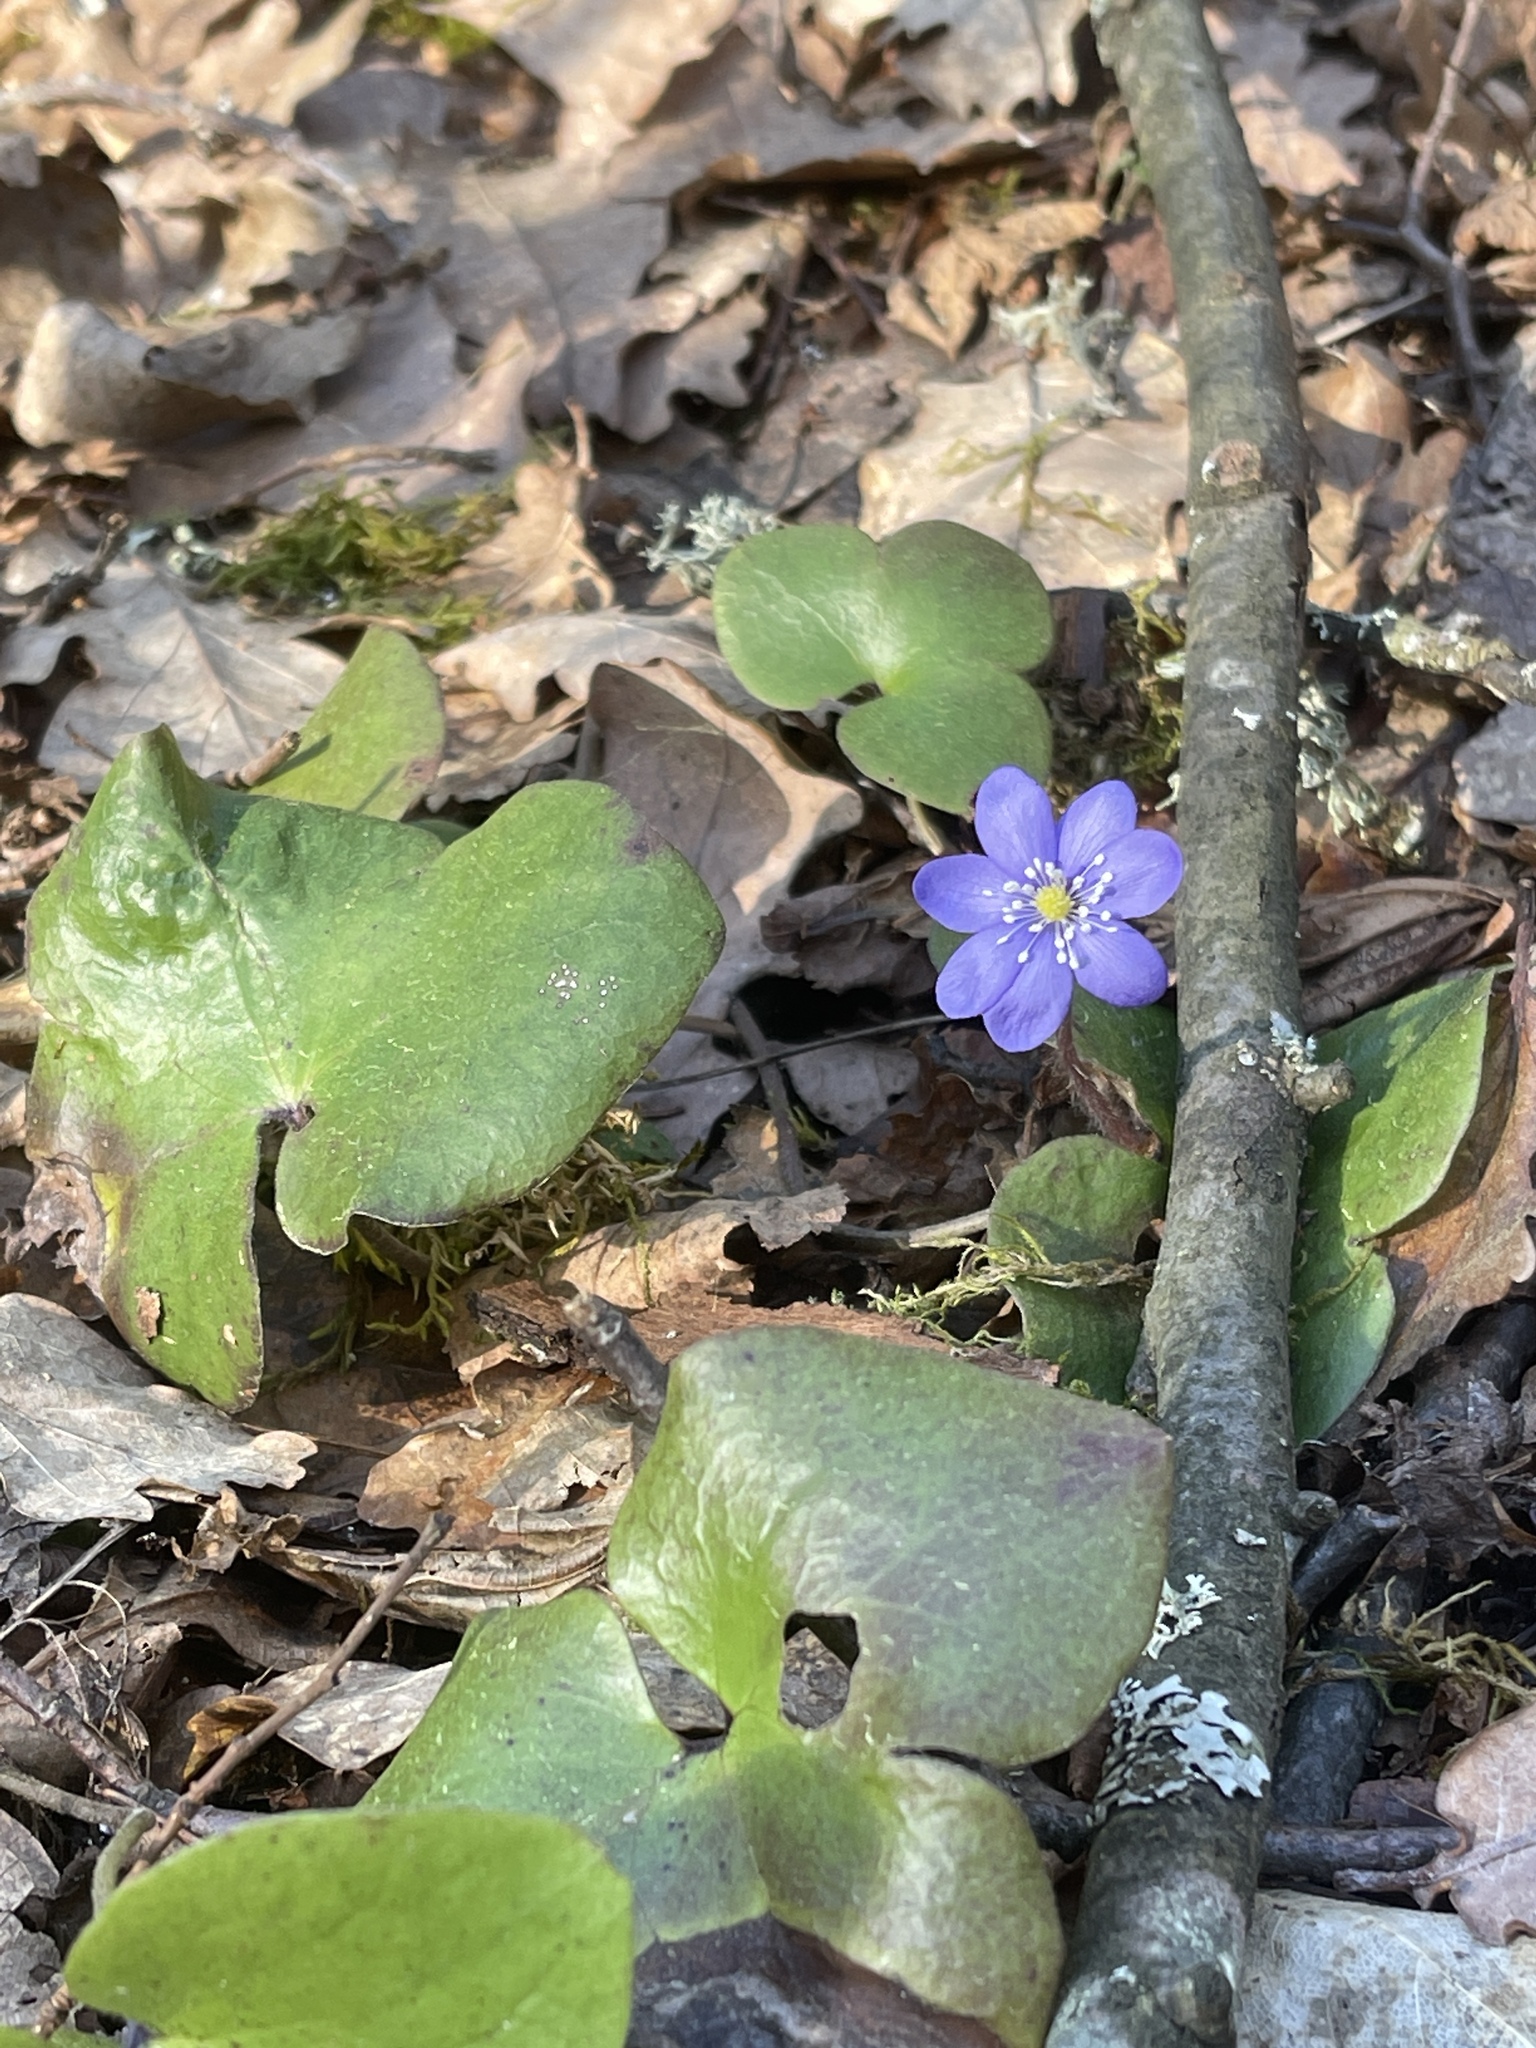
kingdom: Plantae
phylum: Tracheophyta
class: Magnoliopsida
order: Ranunculales
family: Ranunculaceae
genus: Hepatica
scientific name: Hepatica nobilis
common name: Liverleaf
